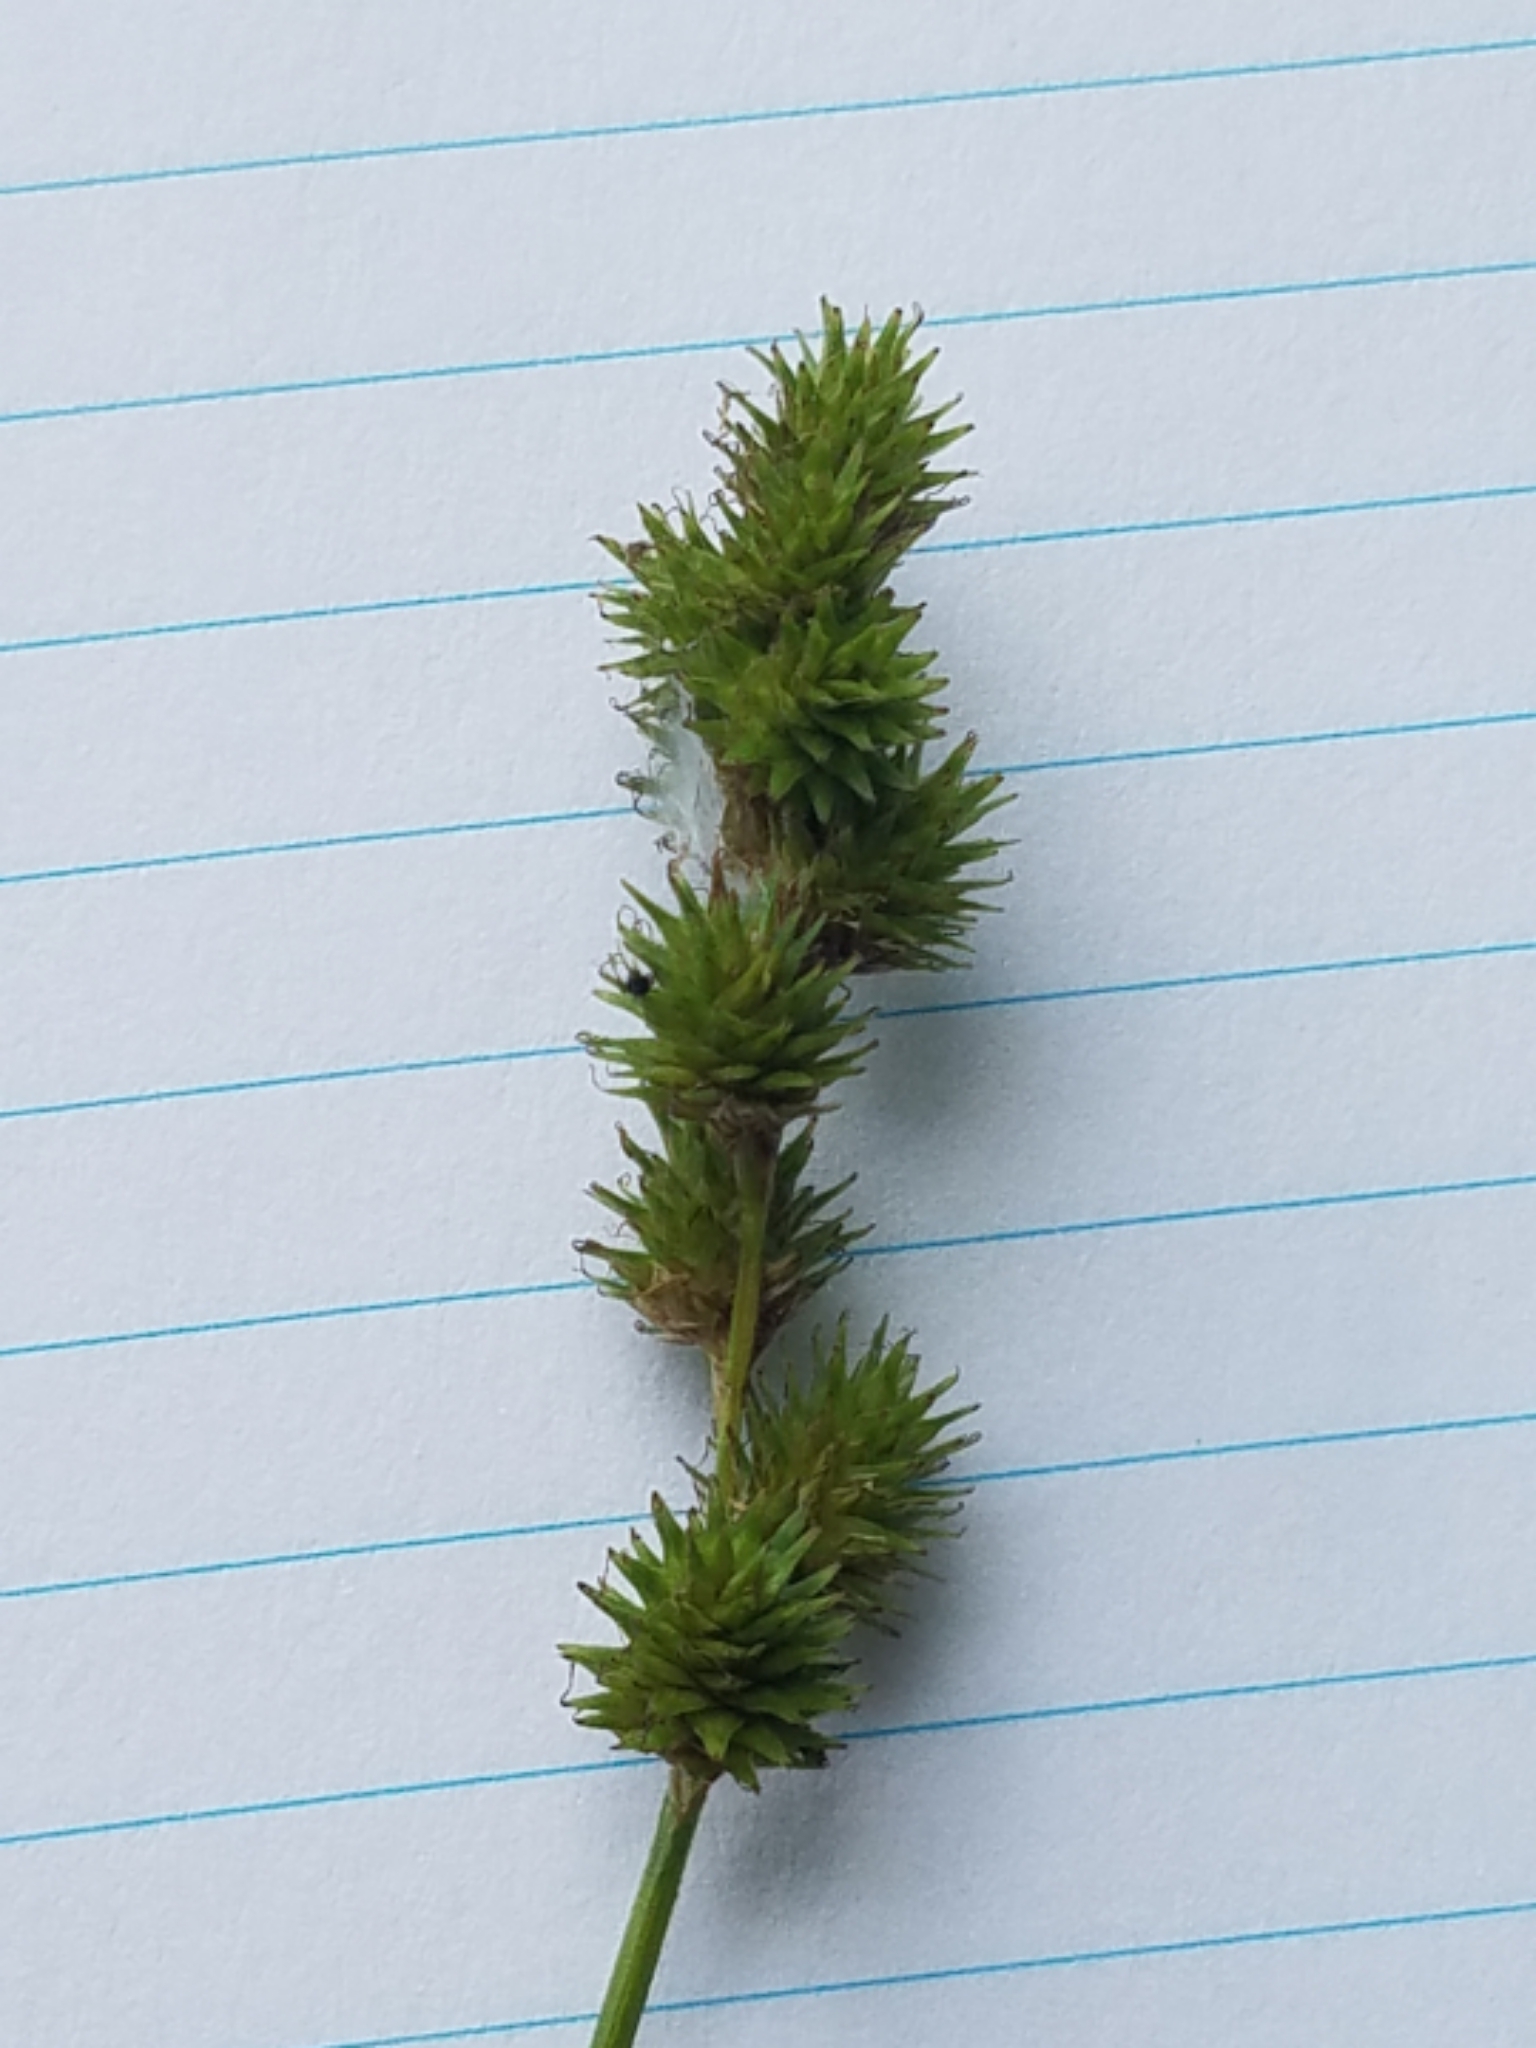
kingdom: Plantae
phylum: Tracheophyta
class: Liliopsida
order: Poales
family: Cyperaceae
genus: Carex
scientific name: Carex normalis
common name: Greater straw sedge
